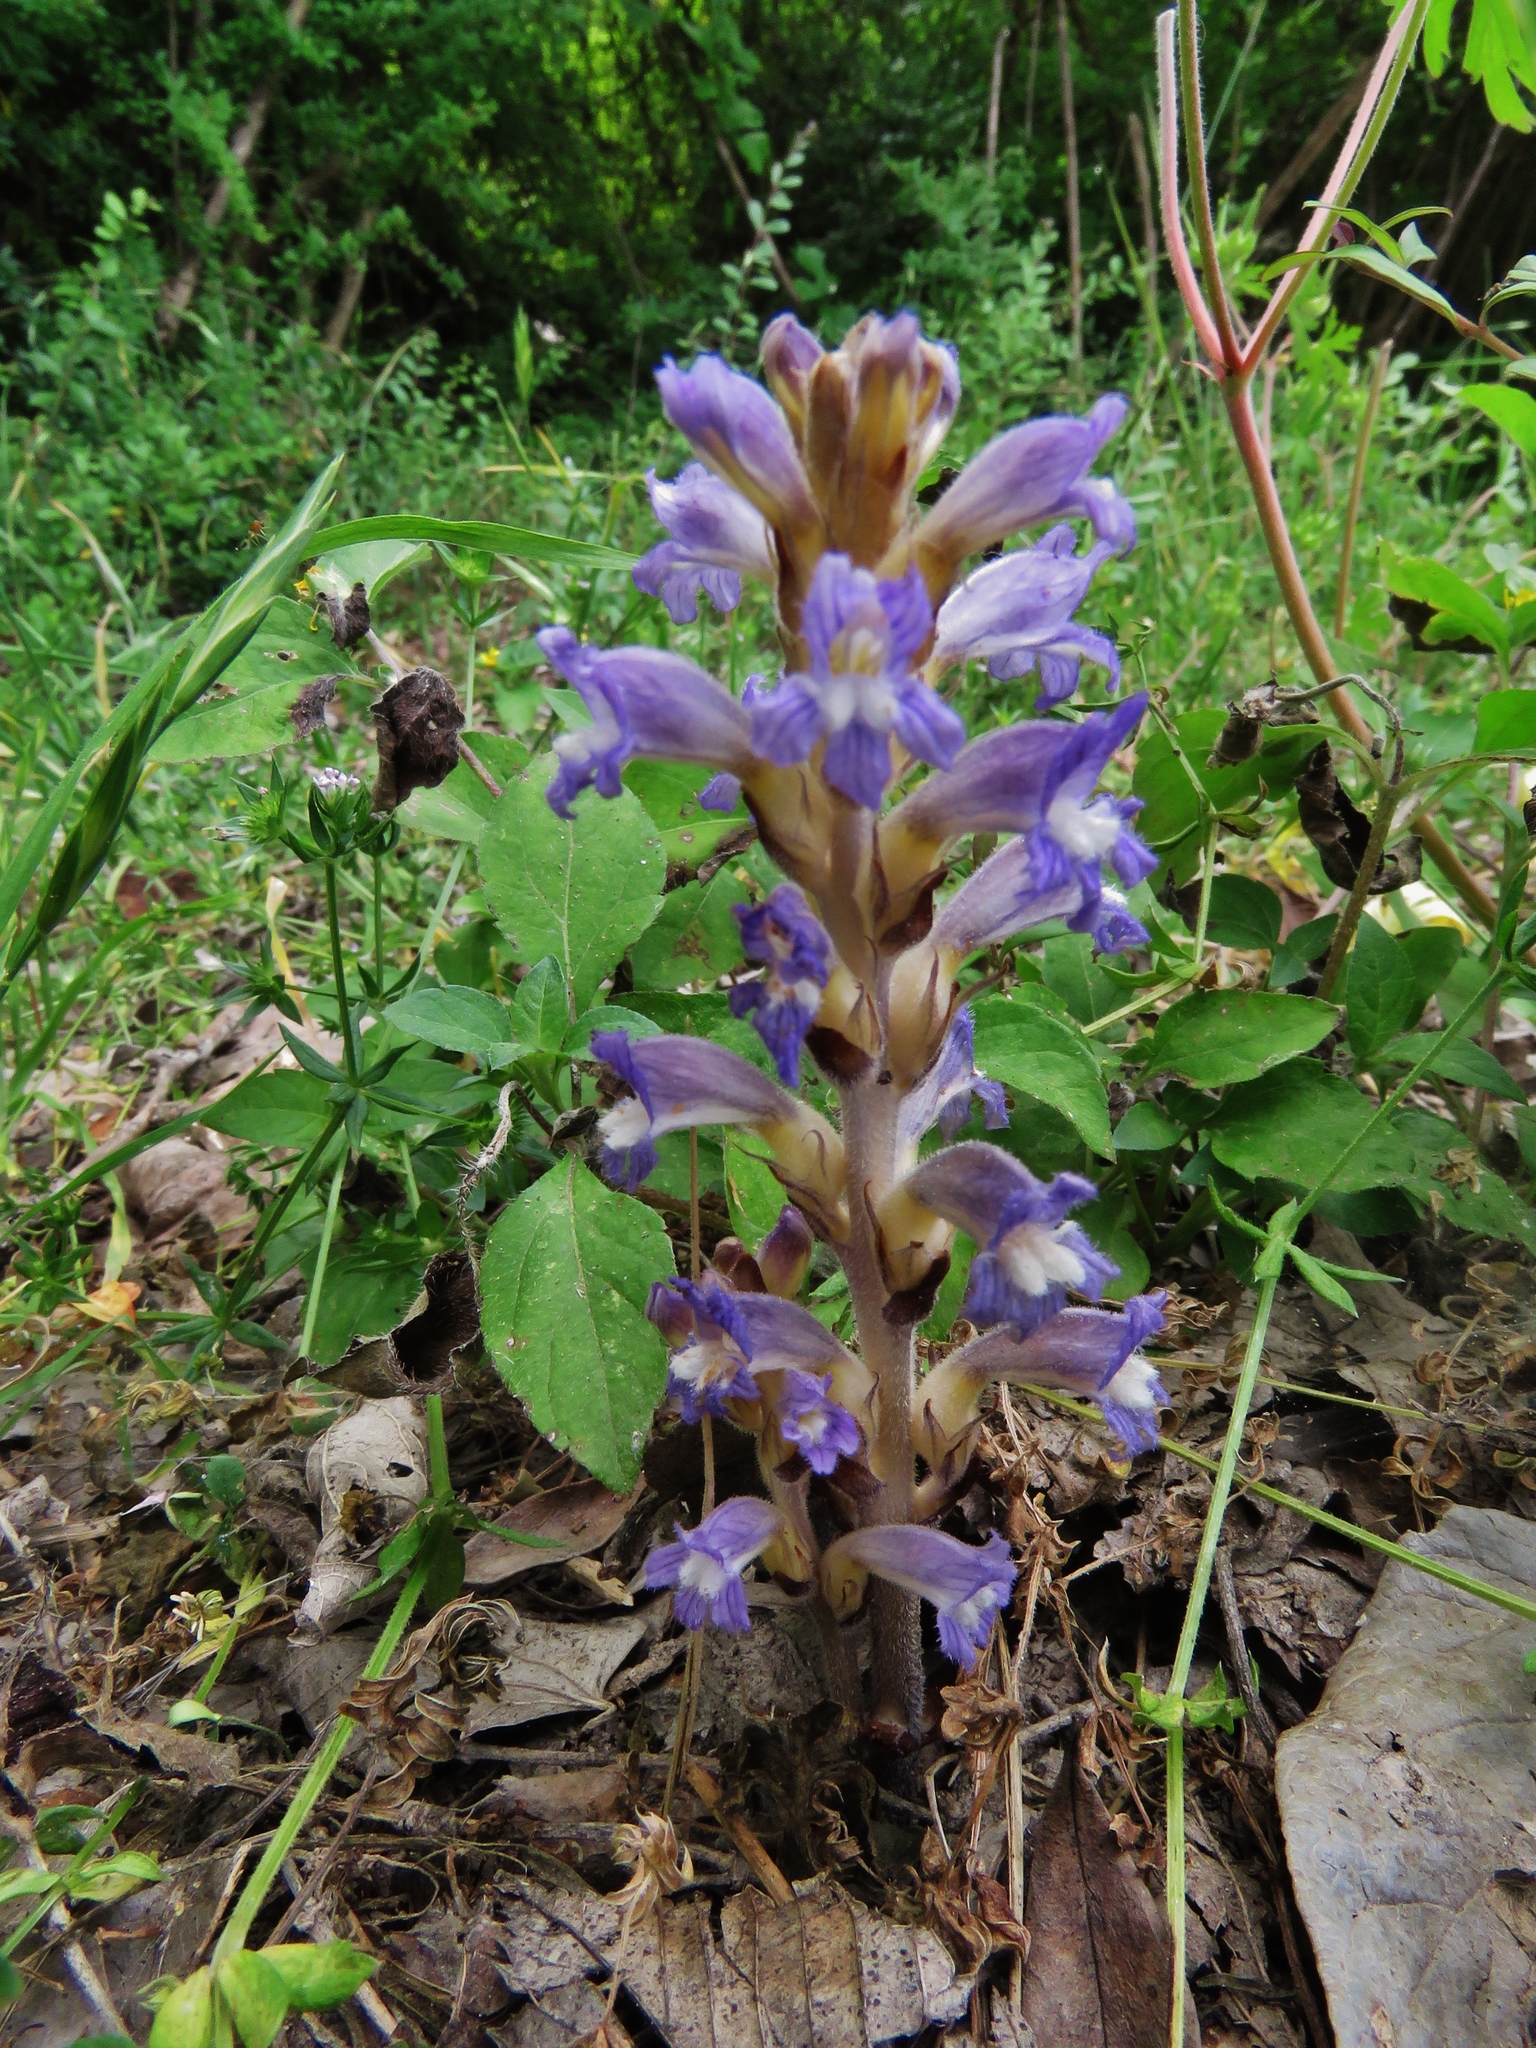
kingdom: Plantae
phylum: Tracheophyta
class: Magnoliopsida
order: Lamiales
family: Orobanchaceae
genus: Phelipanche
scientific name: Phelipanche ramosa
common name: Branched broomrape
